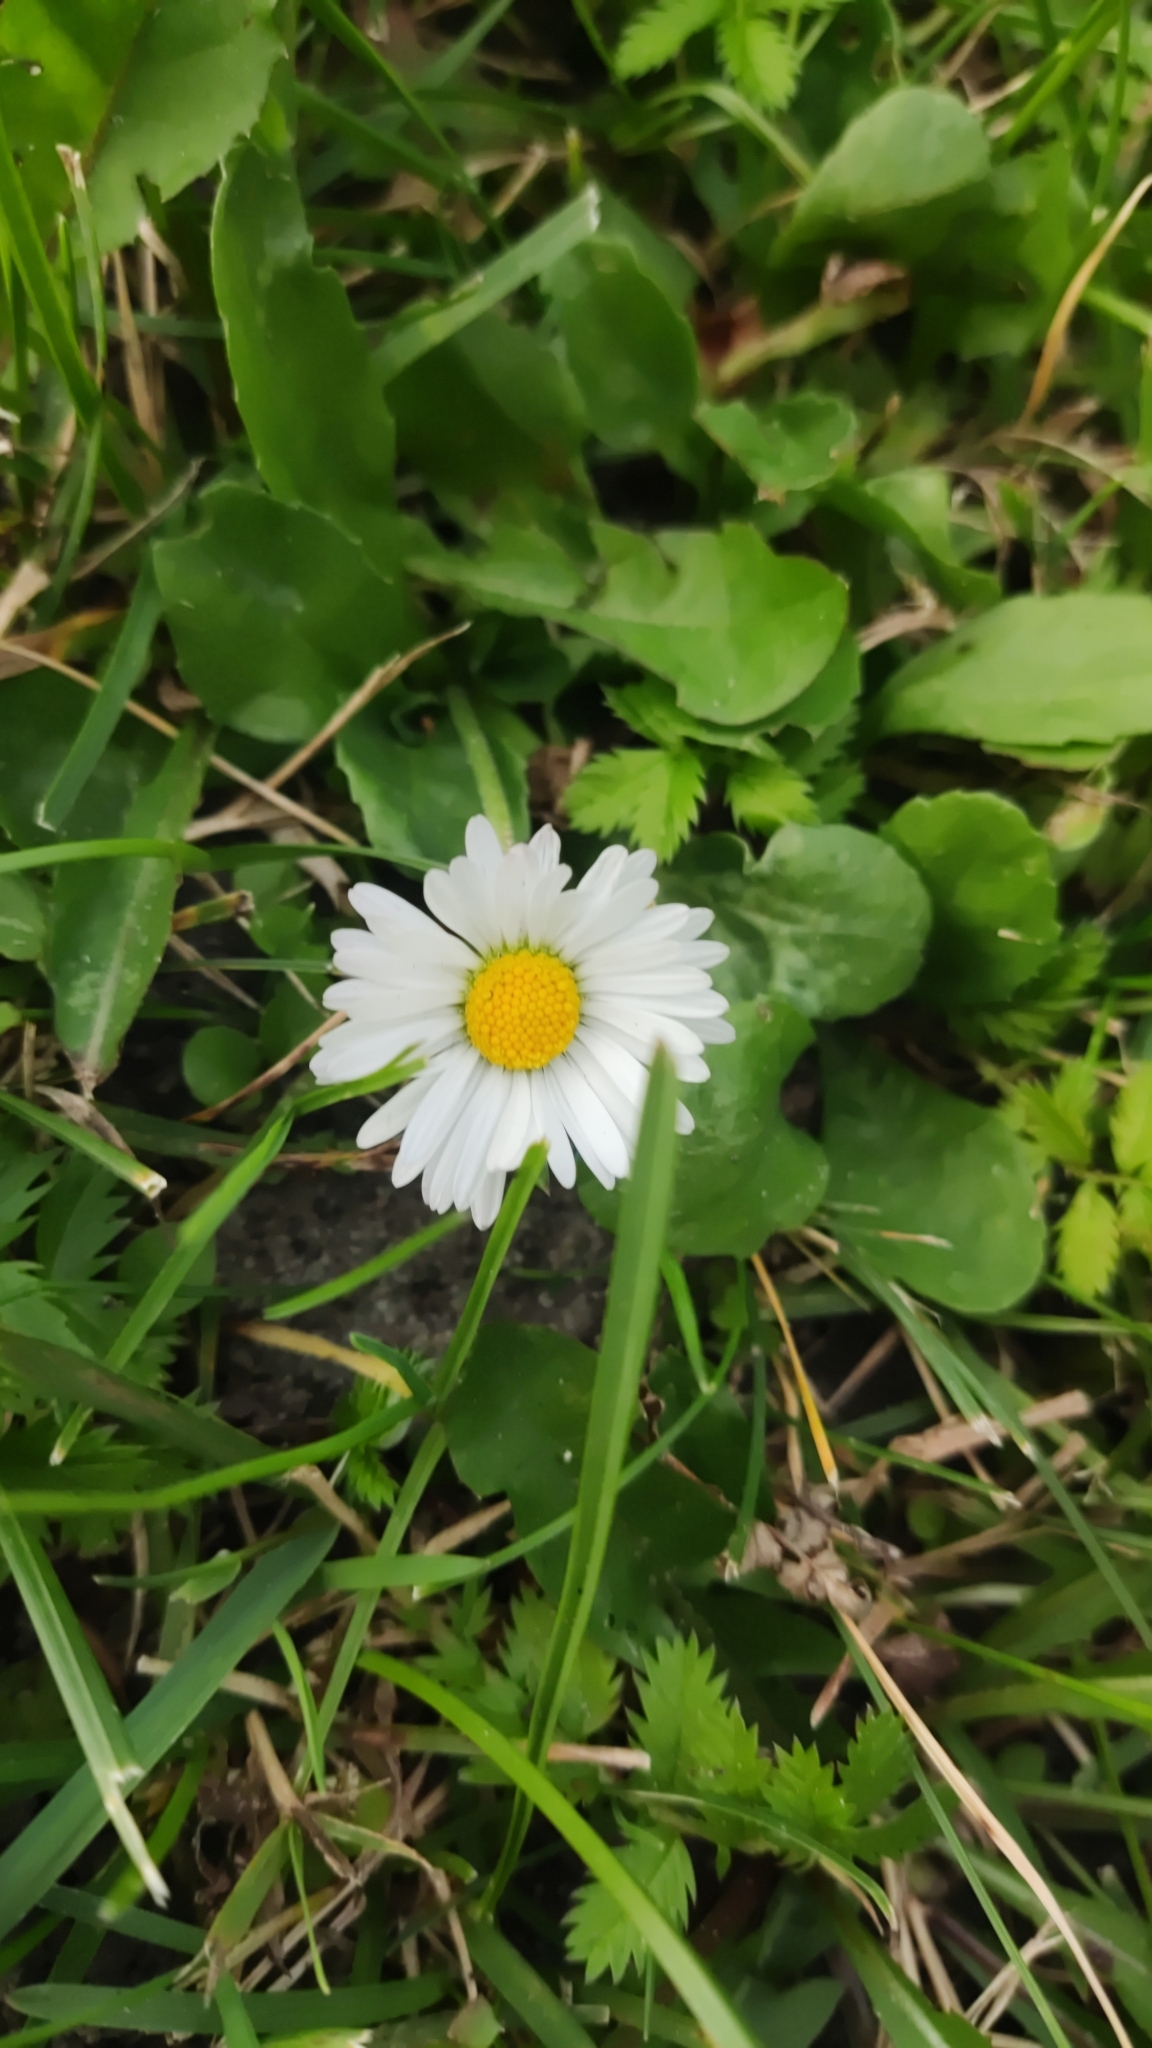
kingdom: Plantae
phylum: Tracheophyta
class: Magnoliopsida
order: Asterales
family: Asteraceae
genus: Bellis
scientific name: Bellis perennis
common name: Lawndaisy
